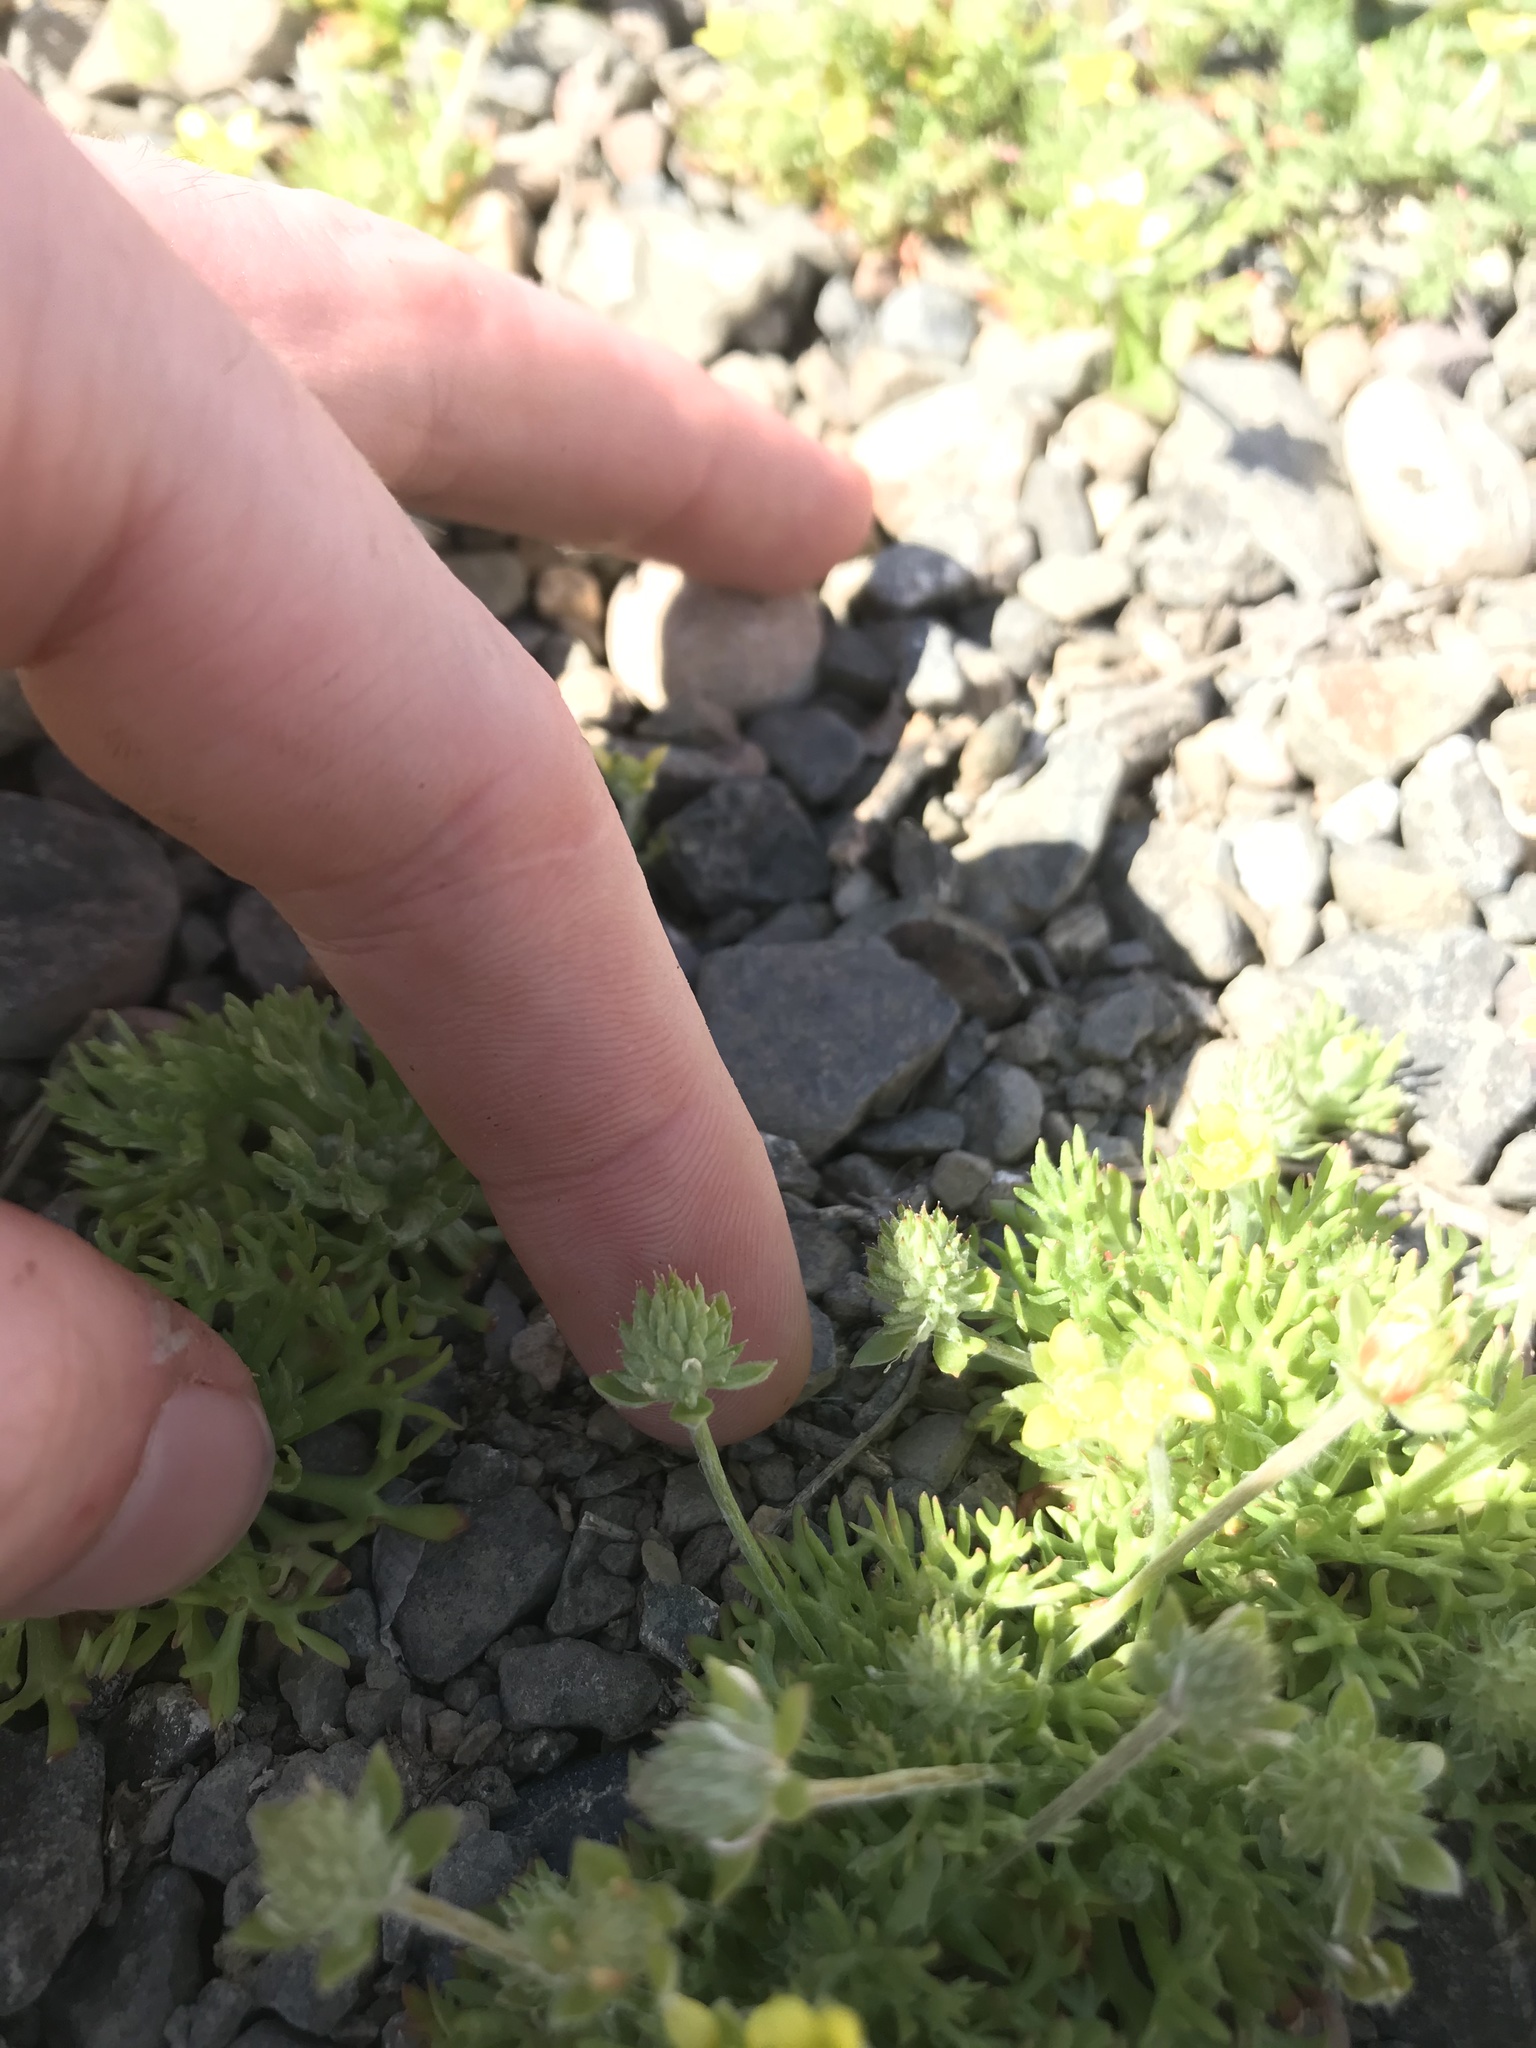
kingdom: Plantae
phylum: Tracheophyta
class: Magnoliopsida
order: Ranunculales
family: Ranunculaceae
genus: Ceratocephala
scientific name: Ceratocephala orthoceras
